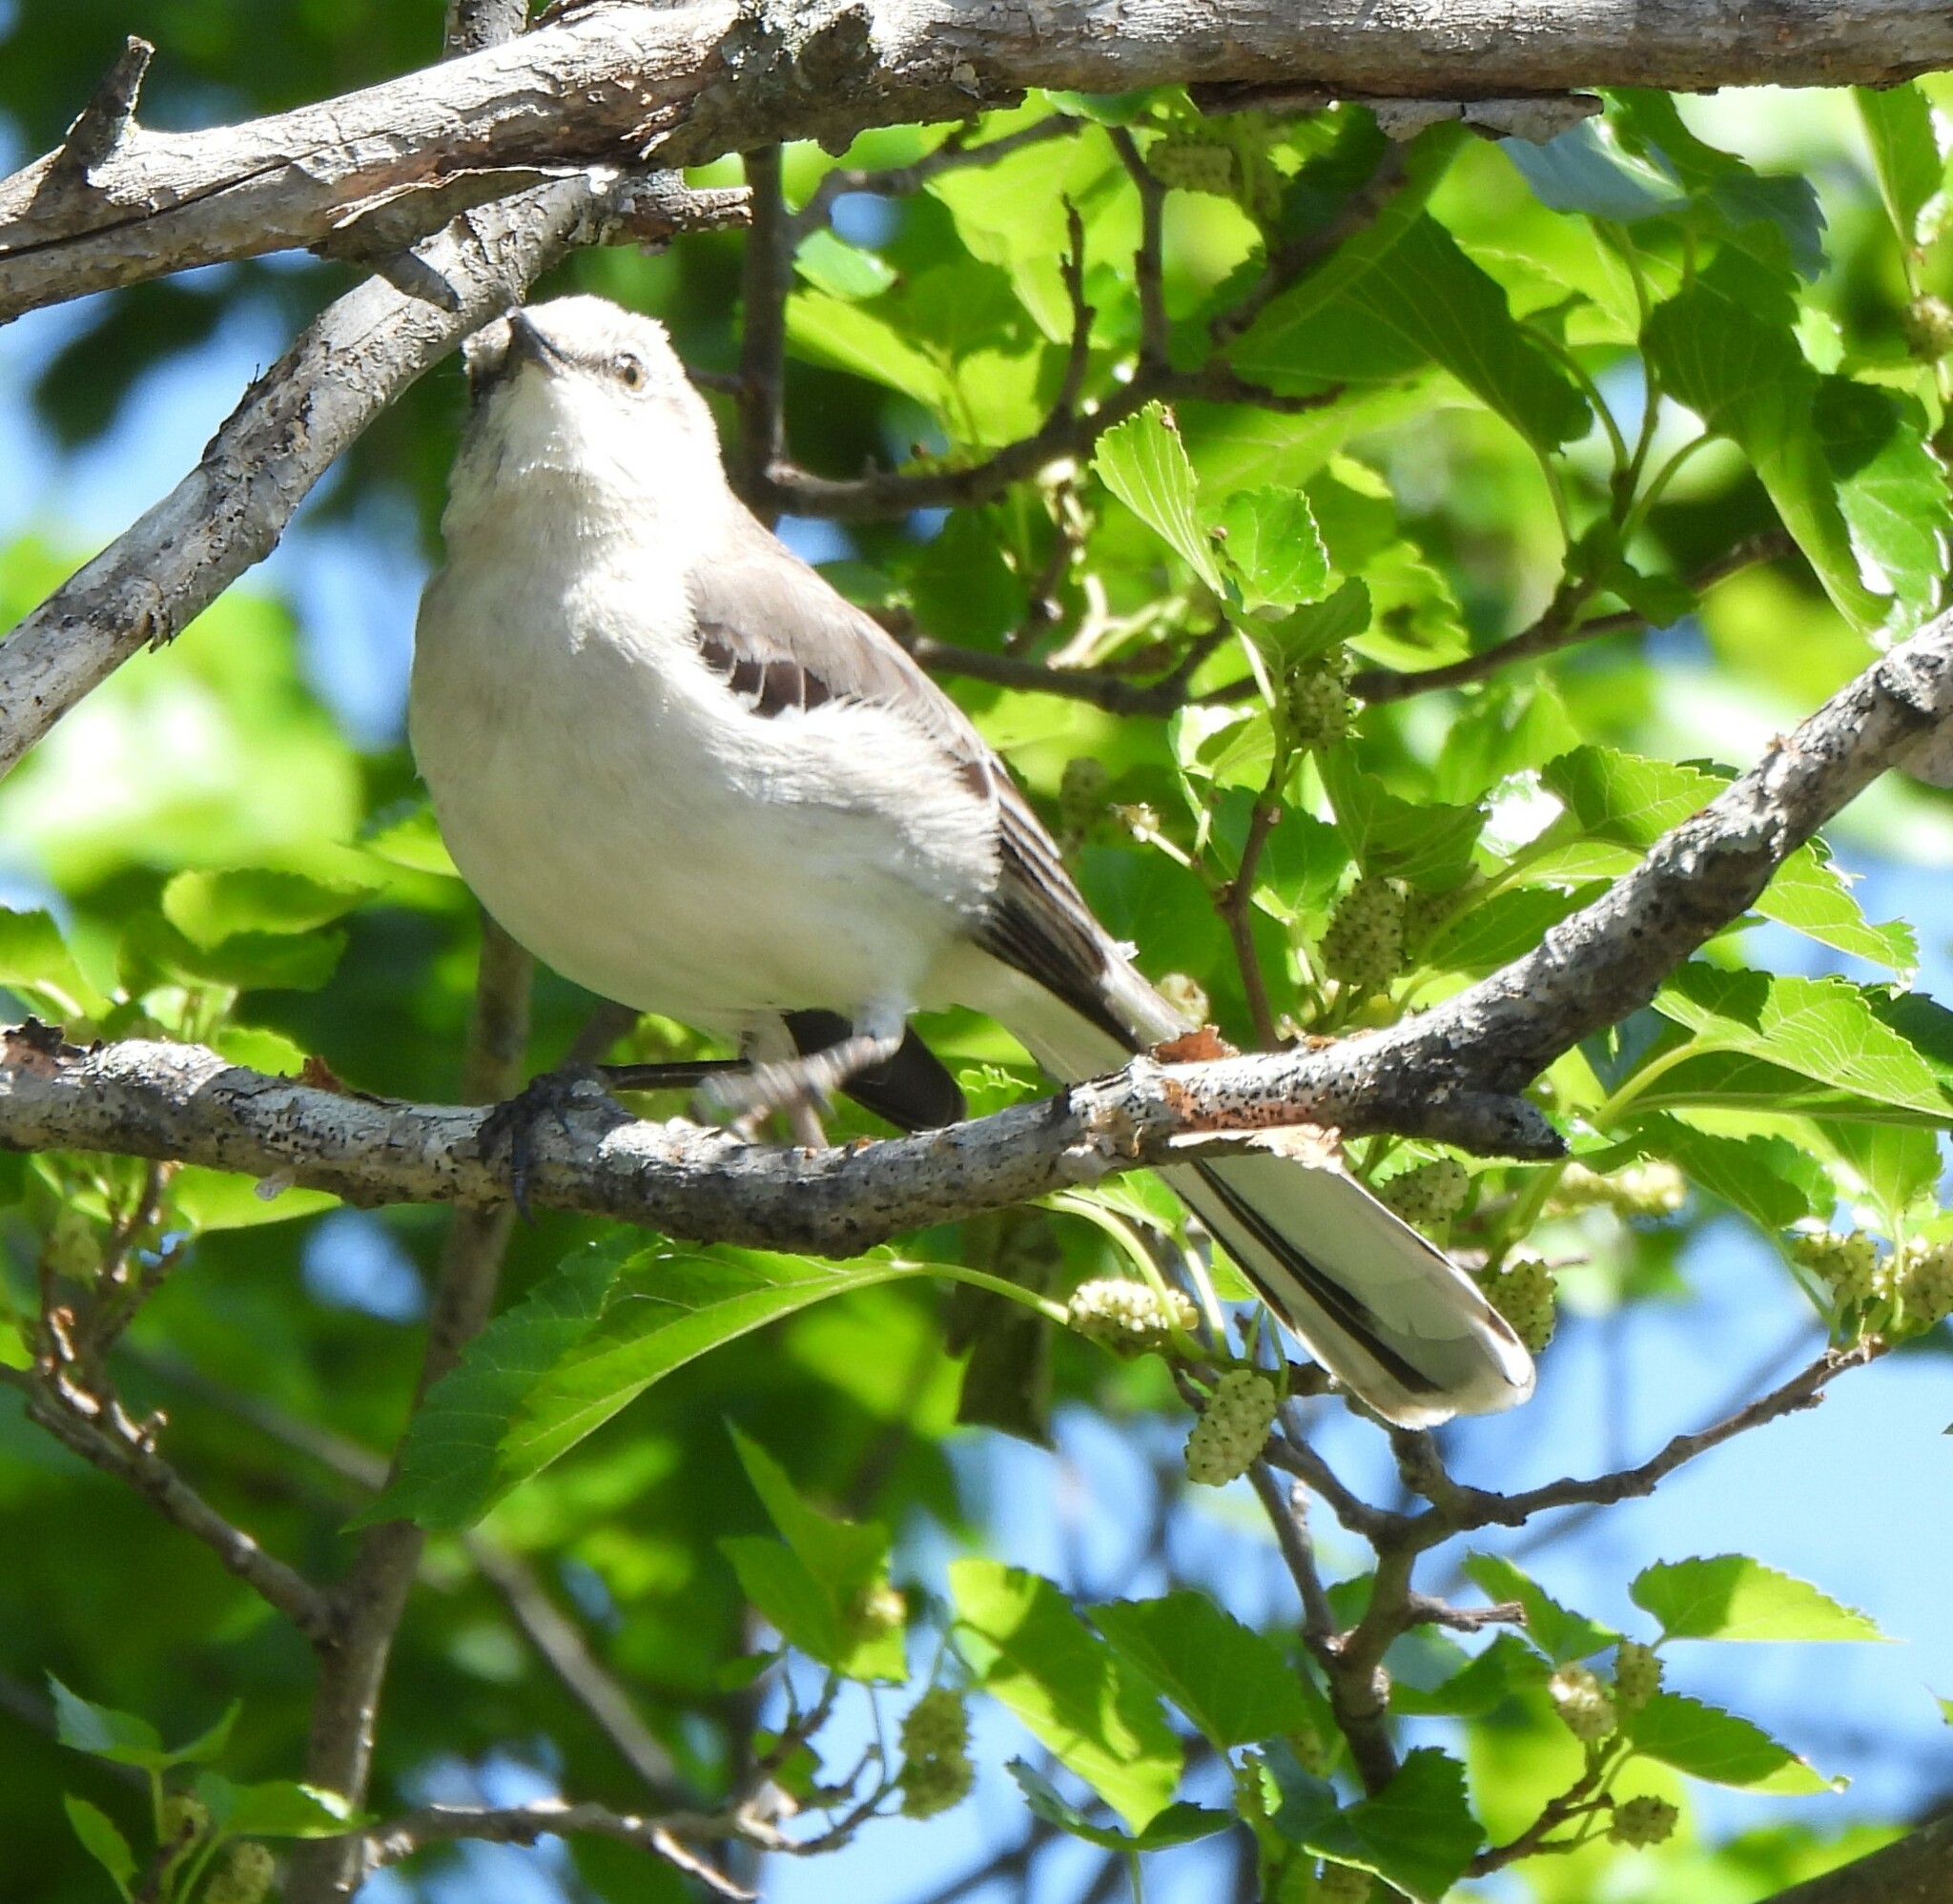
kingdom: Animalia
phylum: Chordata
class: Aves
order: Passeriformes
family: Mimidae
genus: Mimus
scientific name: Mimus polyglottos
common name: Northern mockingbird
